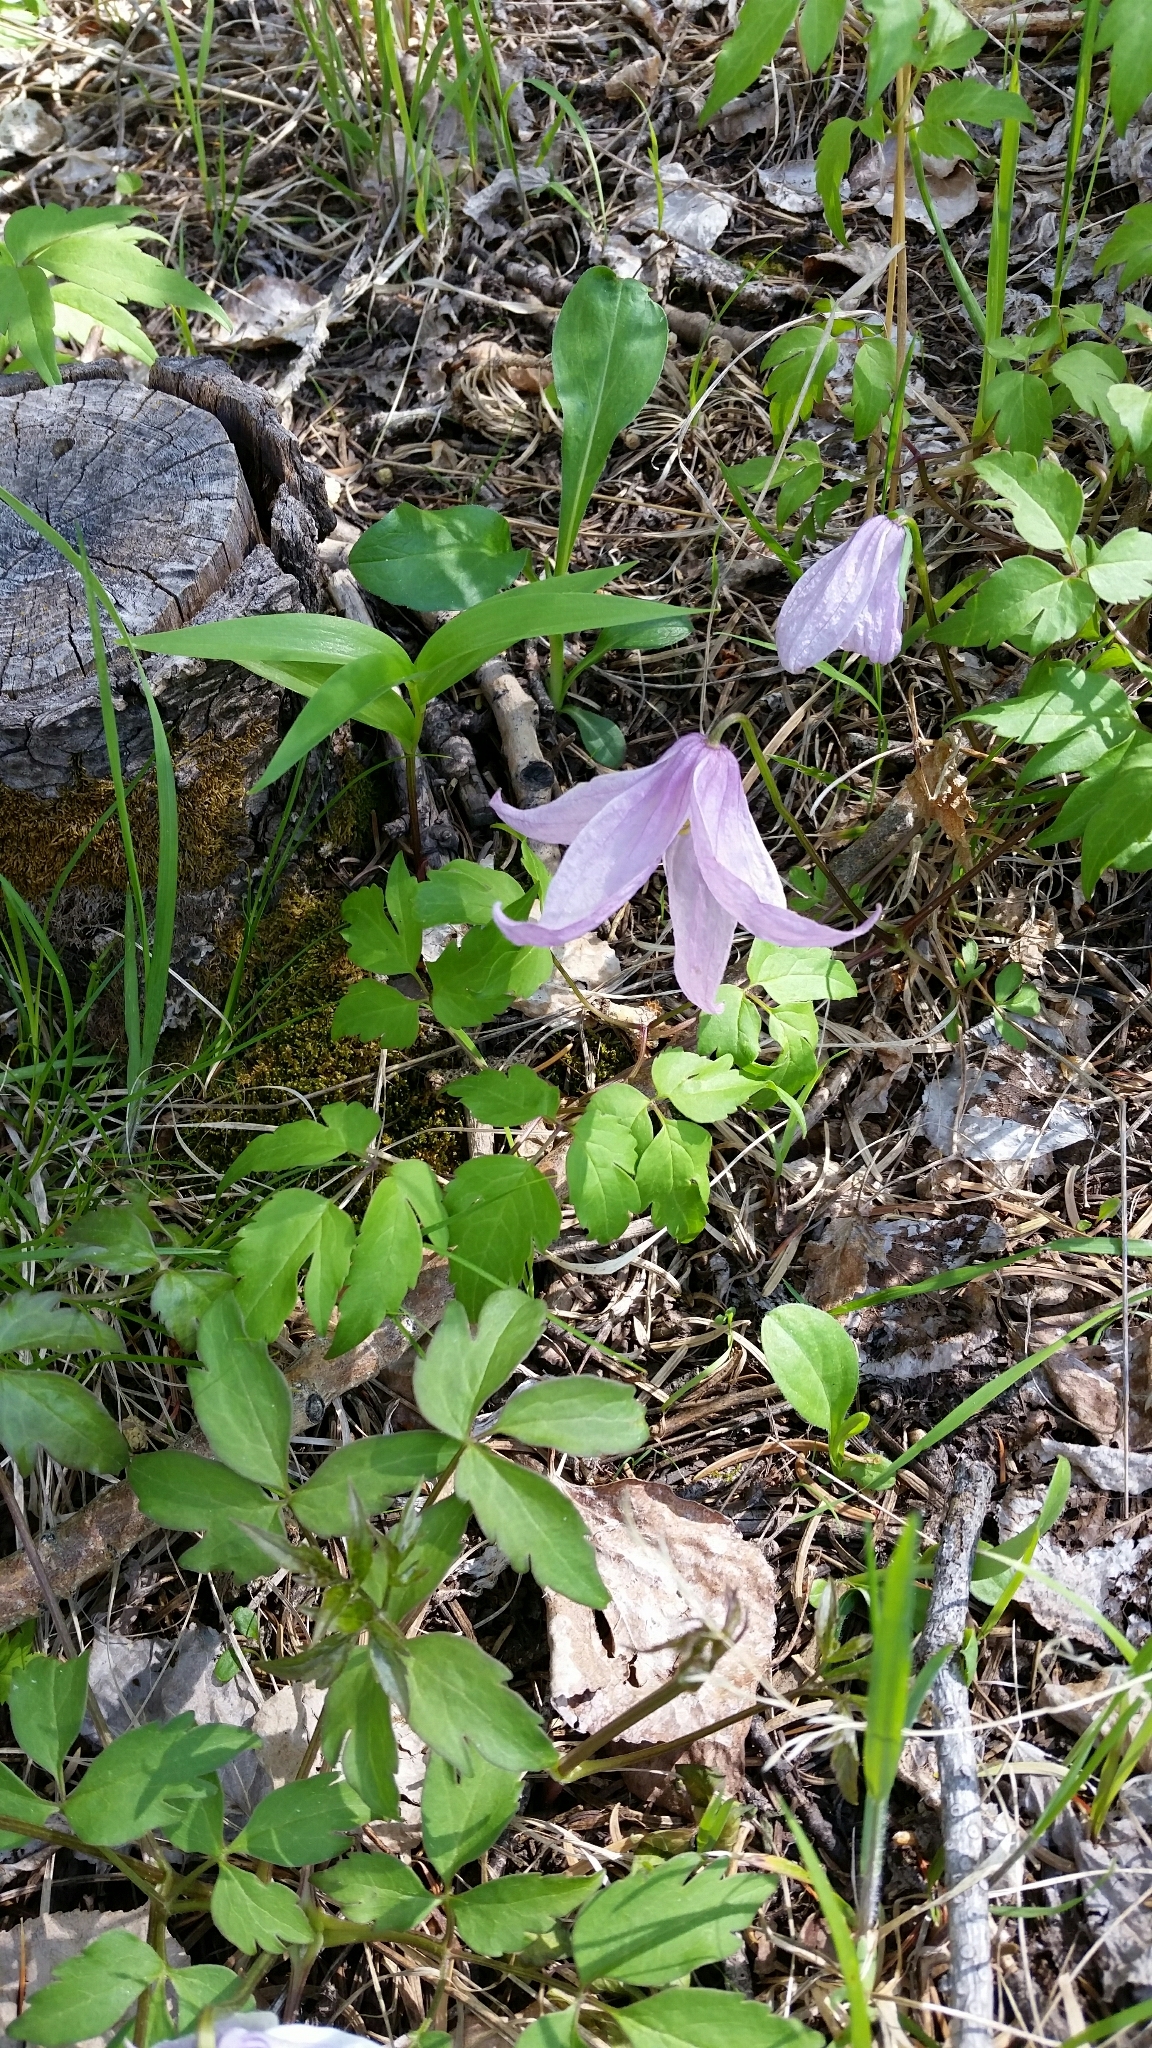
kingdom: Plantae
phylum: Tracheophyta
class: Magnoliopsida
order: Ranunculales
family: Ranunculaceae
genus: Clematis
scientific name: Clematis columbiana
